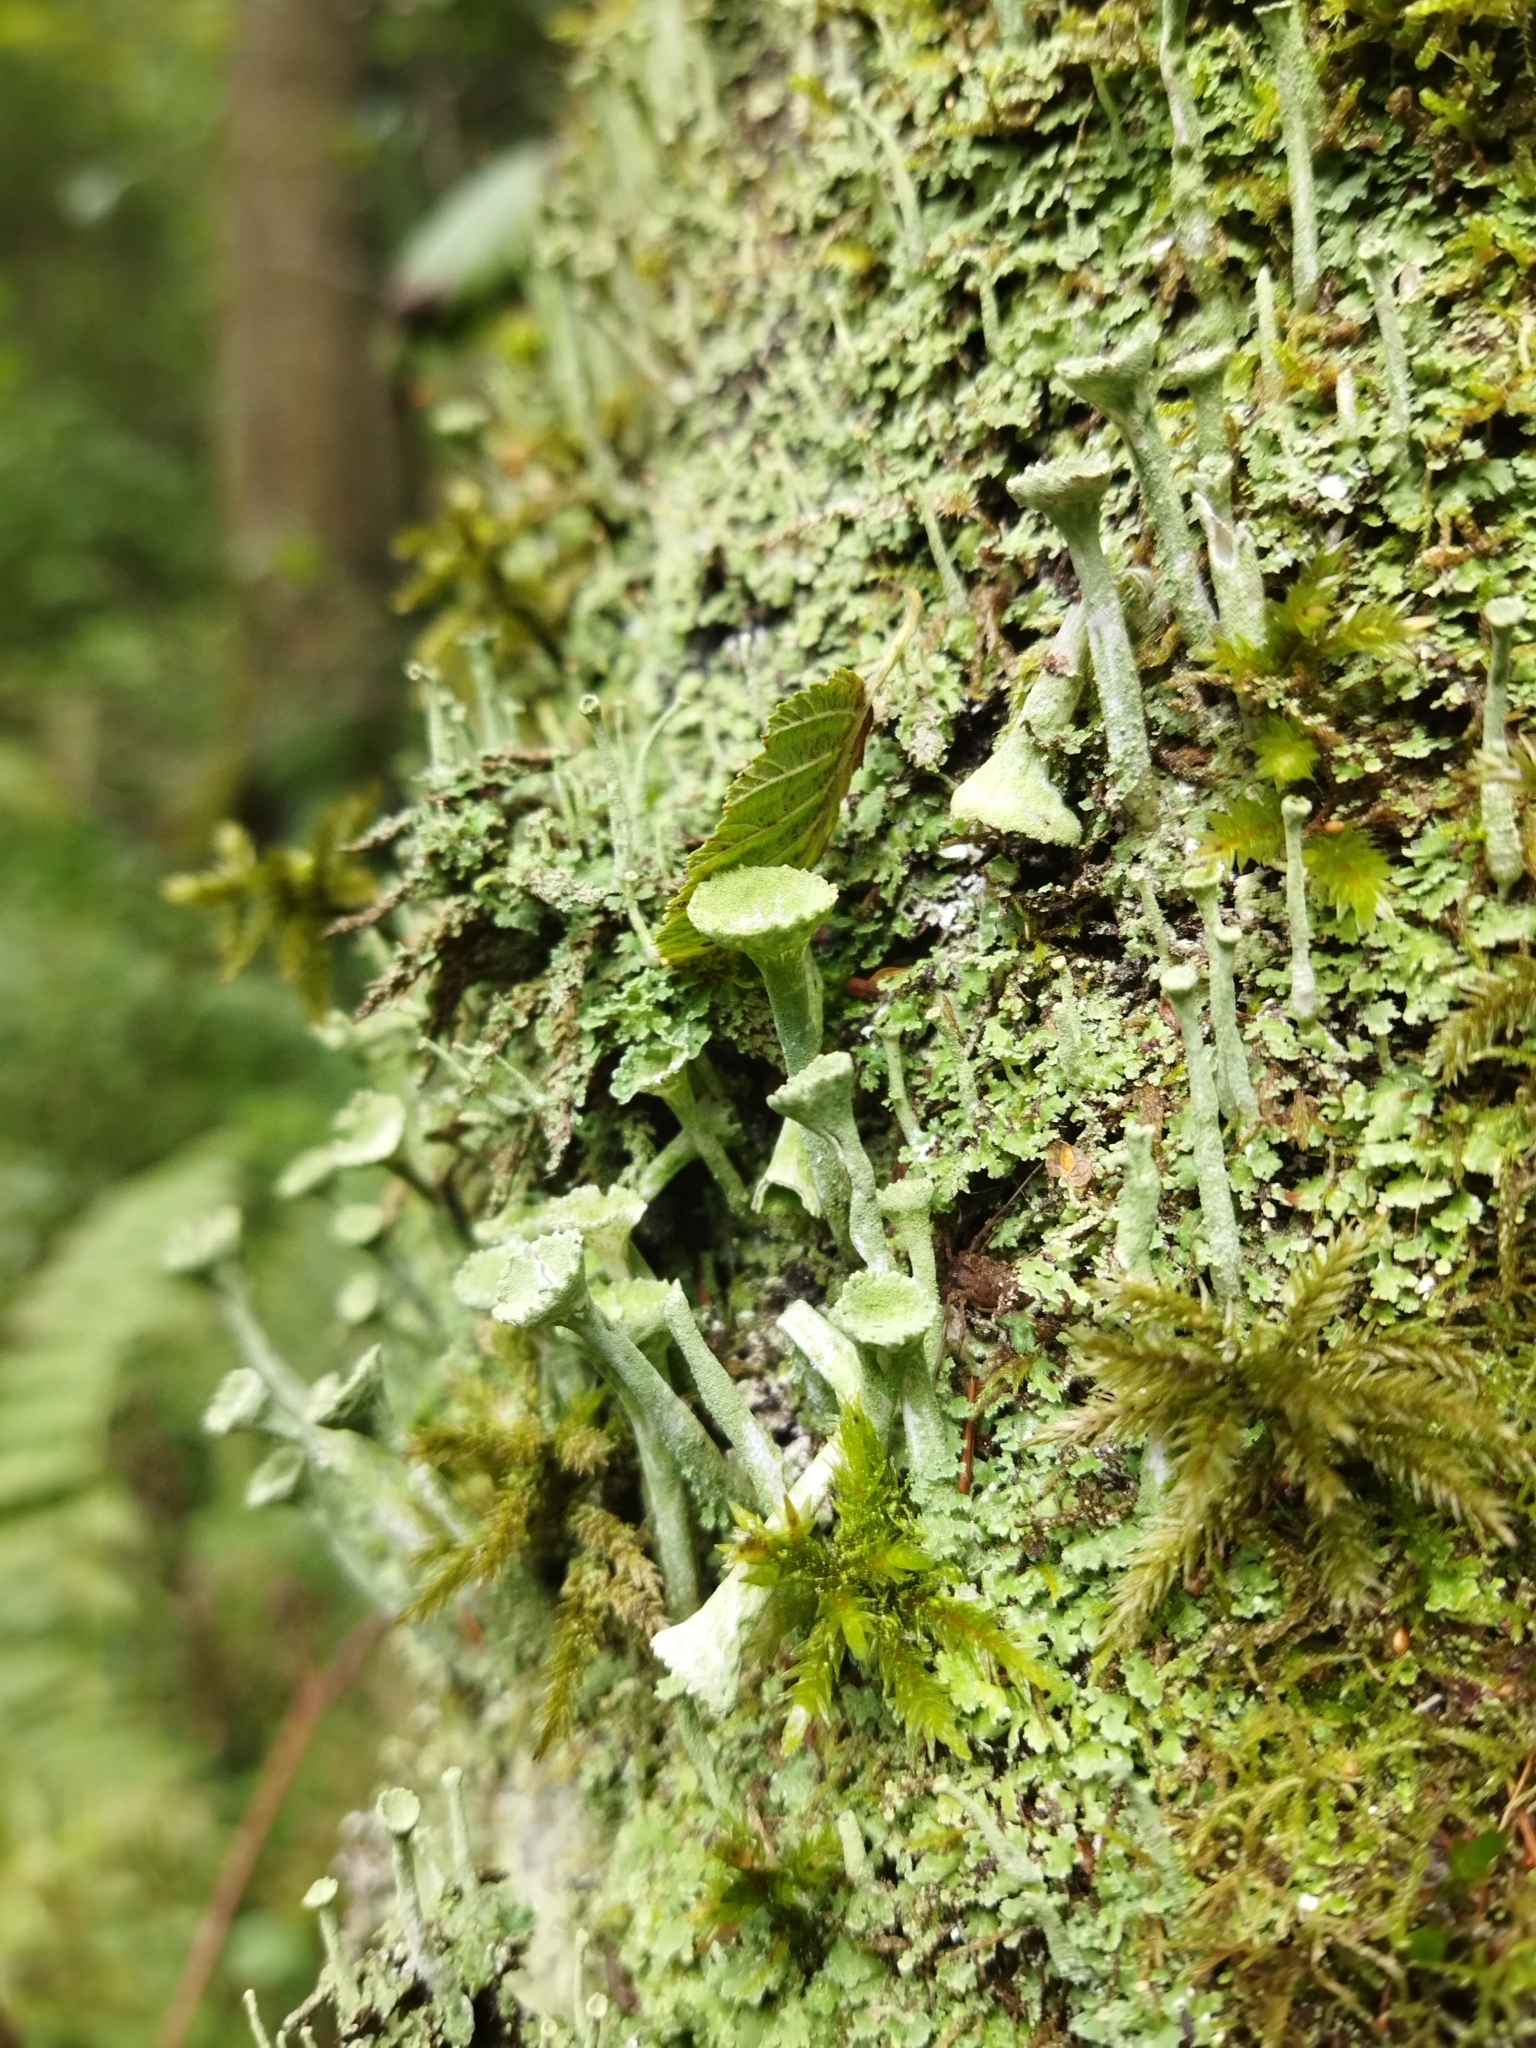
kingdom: Fungi
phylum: Ascomycota
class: Lecanoromycetes
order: Lecanorales
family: Cladoniaceae
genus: Cladonia
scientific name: Cladonia fimbriata
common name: Powdered trumpet lichen
